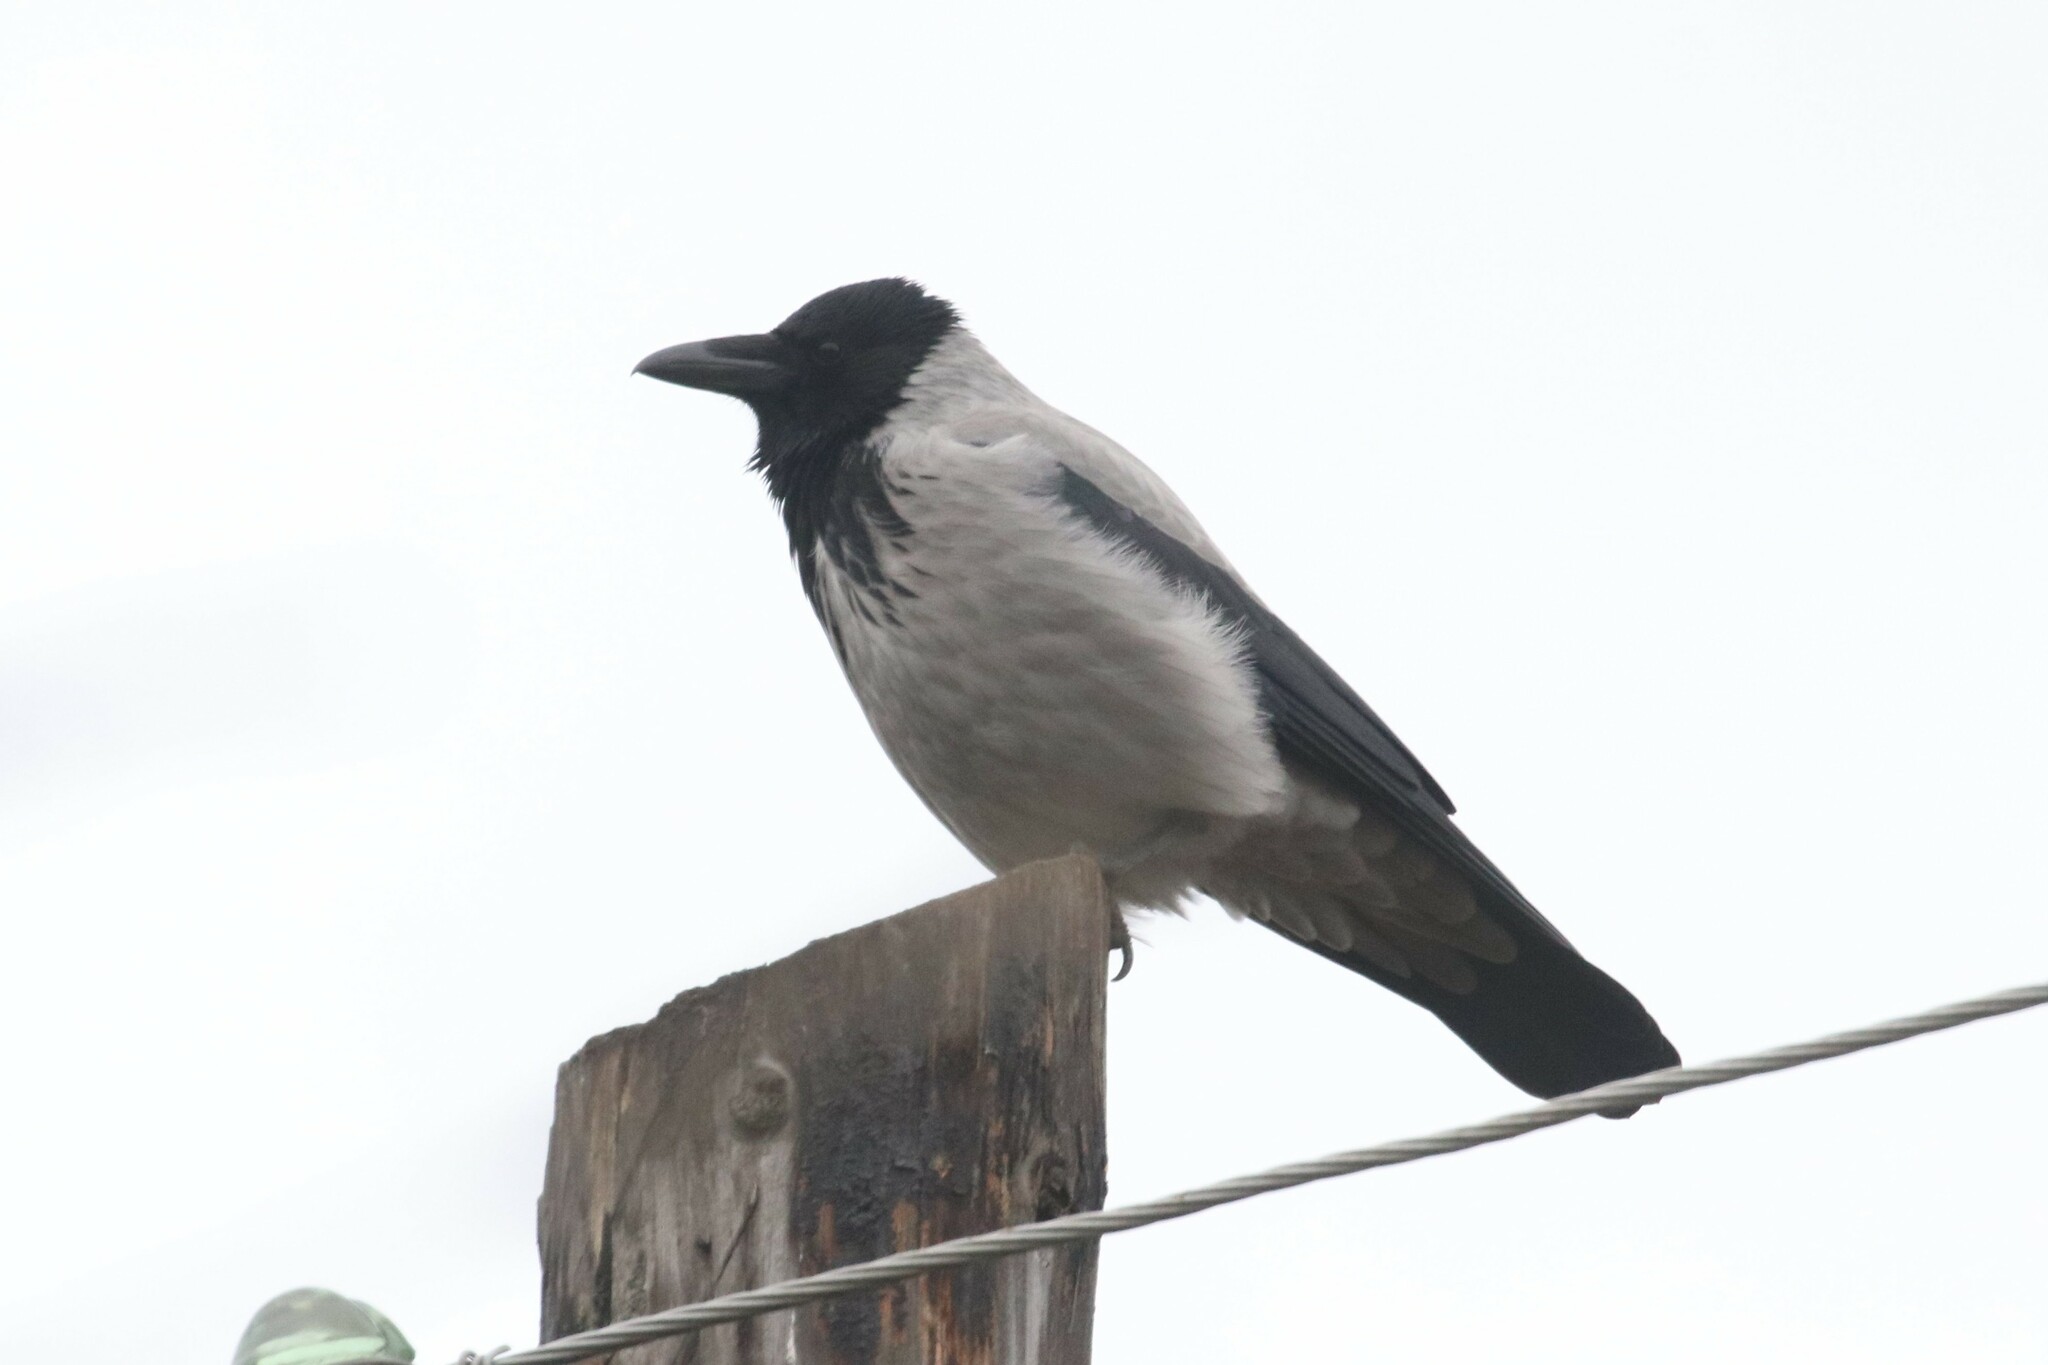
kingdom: Animalia
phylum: Chordata
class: Aves
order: Passeriformes
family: Corvidae
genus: Corvus
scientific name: Corvus cornix
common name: Hooded crow
